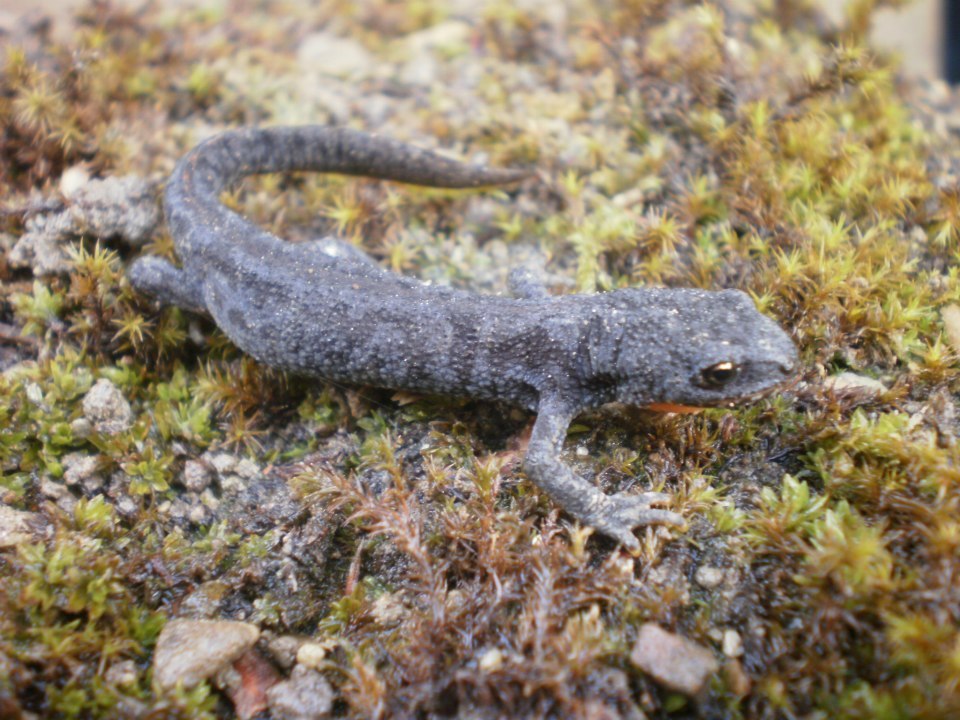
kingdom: Animalia
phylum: Chordata
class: Amphibia
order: Caudata
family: Salamandridae
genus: Ichthyosaura
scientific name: Ichthyosaura alpestris
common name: Alpine newt
